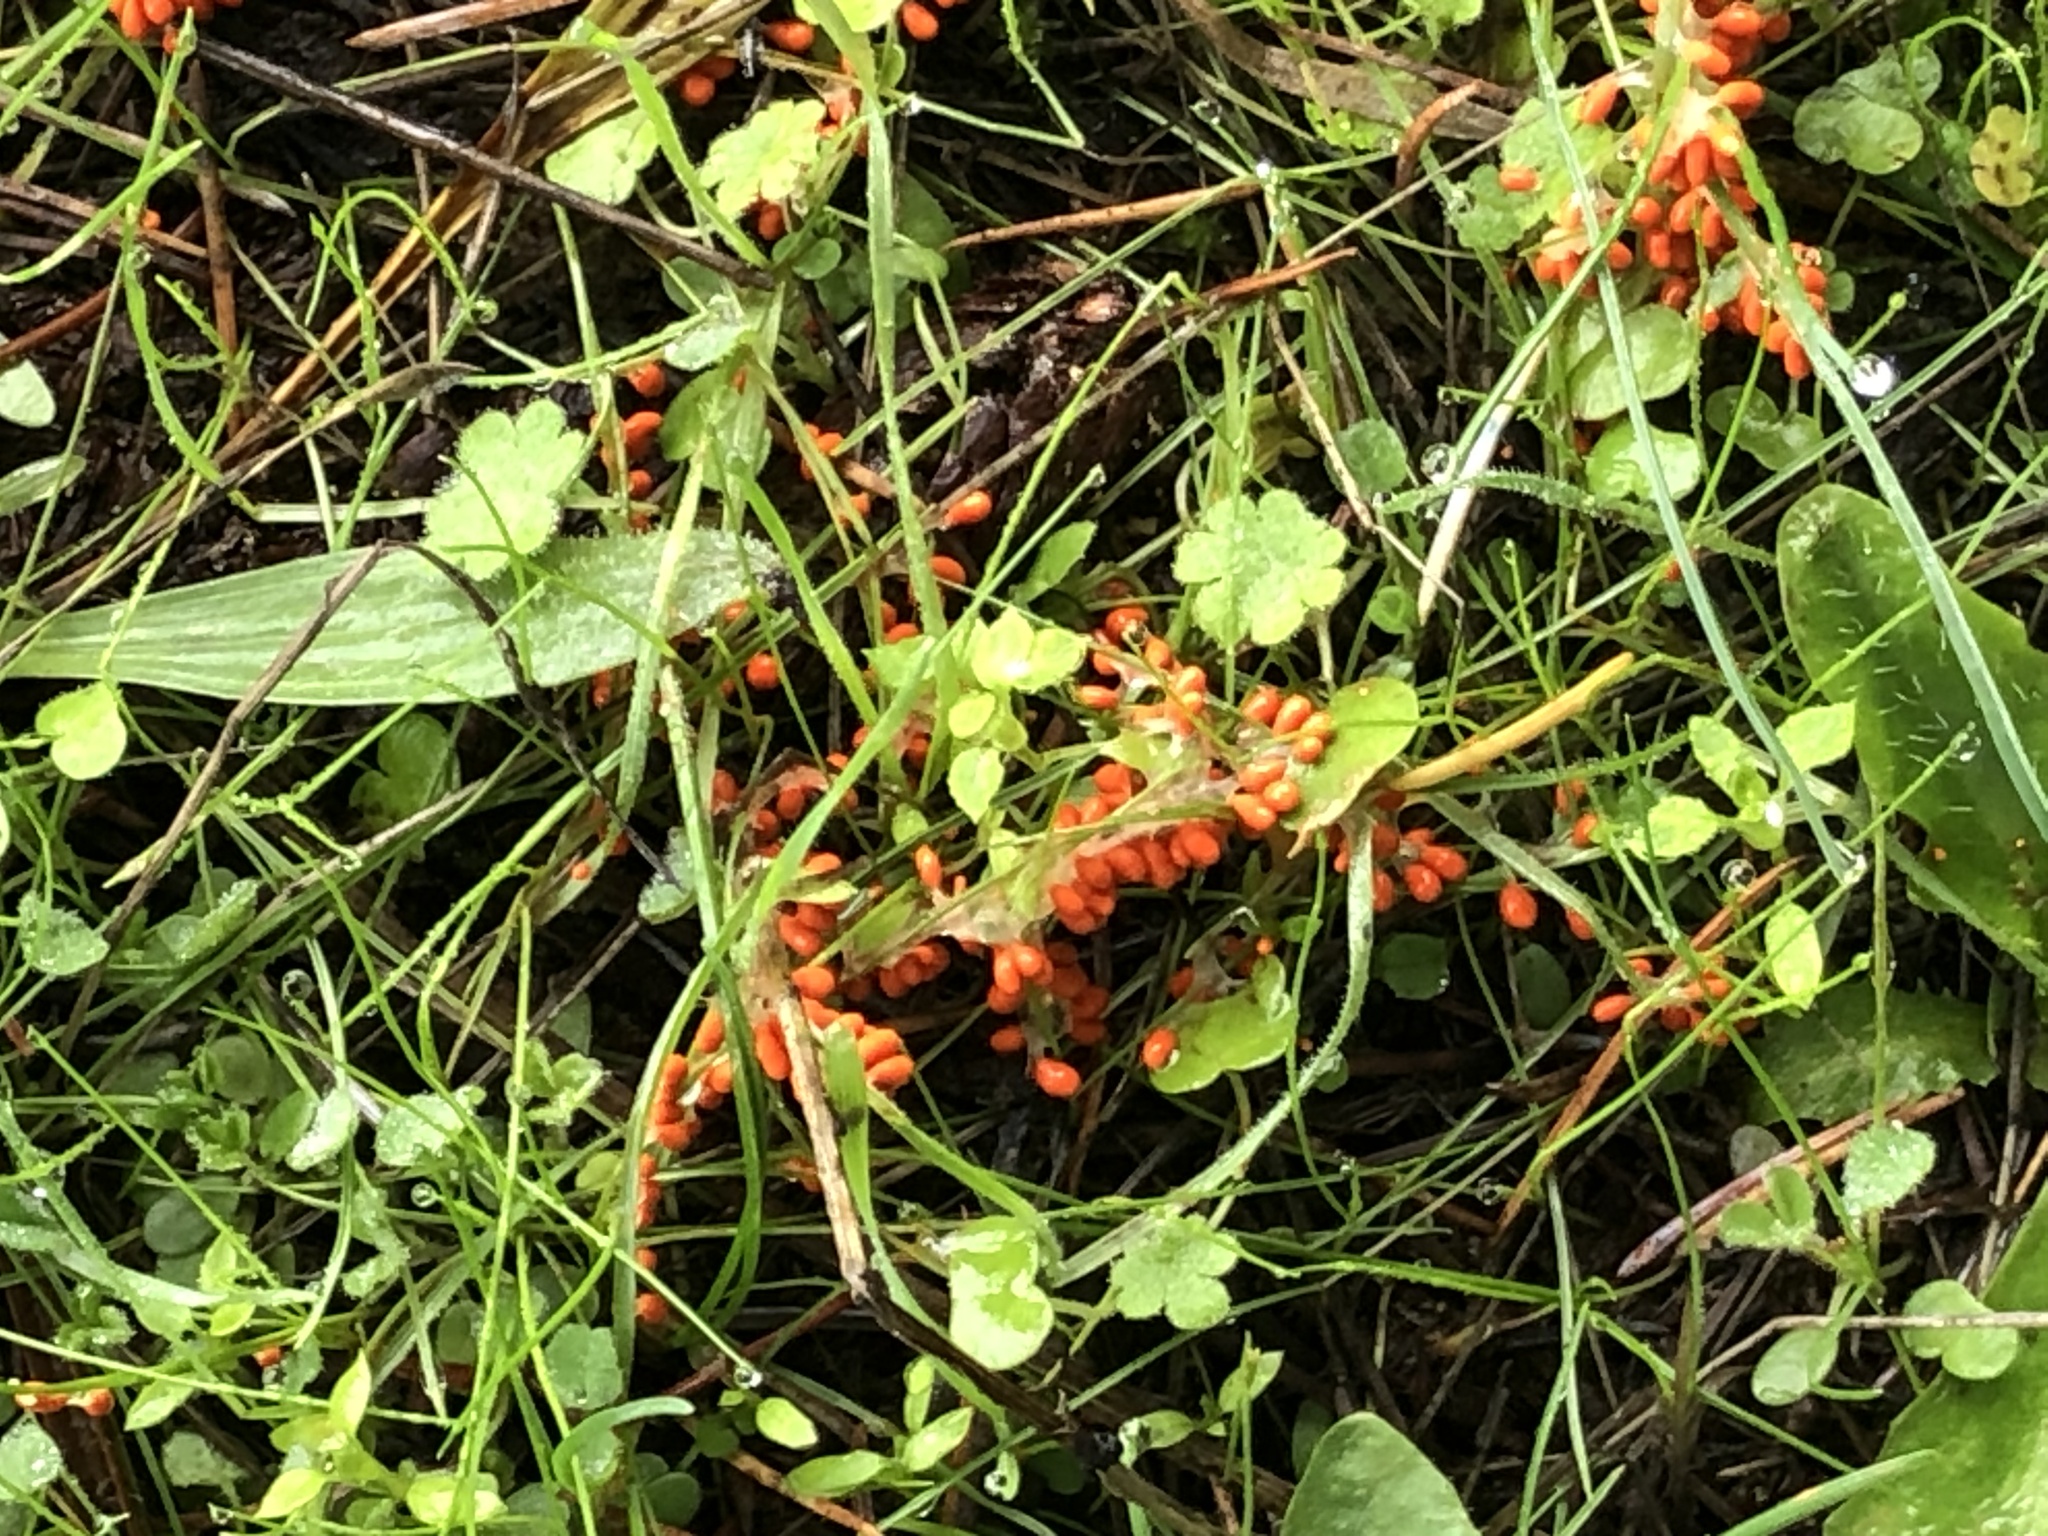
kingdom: Protozoa
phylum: Mycetozoa
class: Myxomycetes
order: Physarales
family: Physaraceae
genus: Leocarpus
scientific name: Leocarpus fragilis
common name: Insect-egg slime
